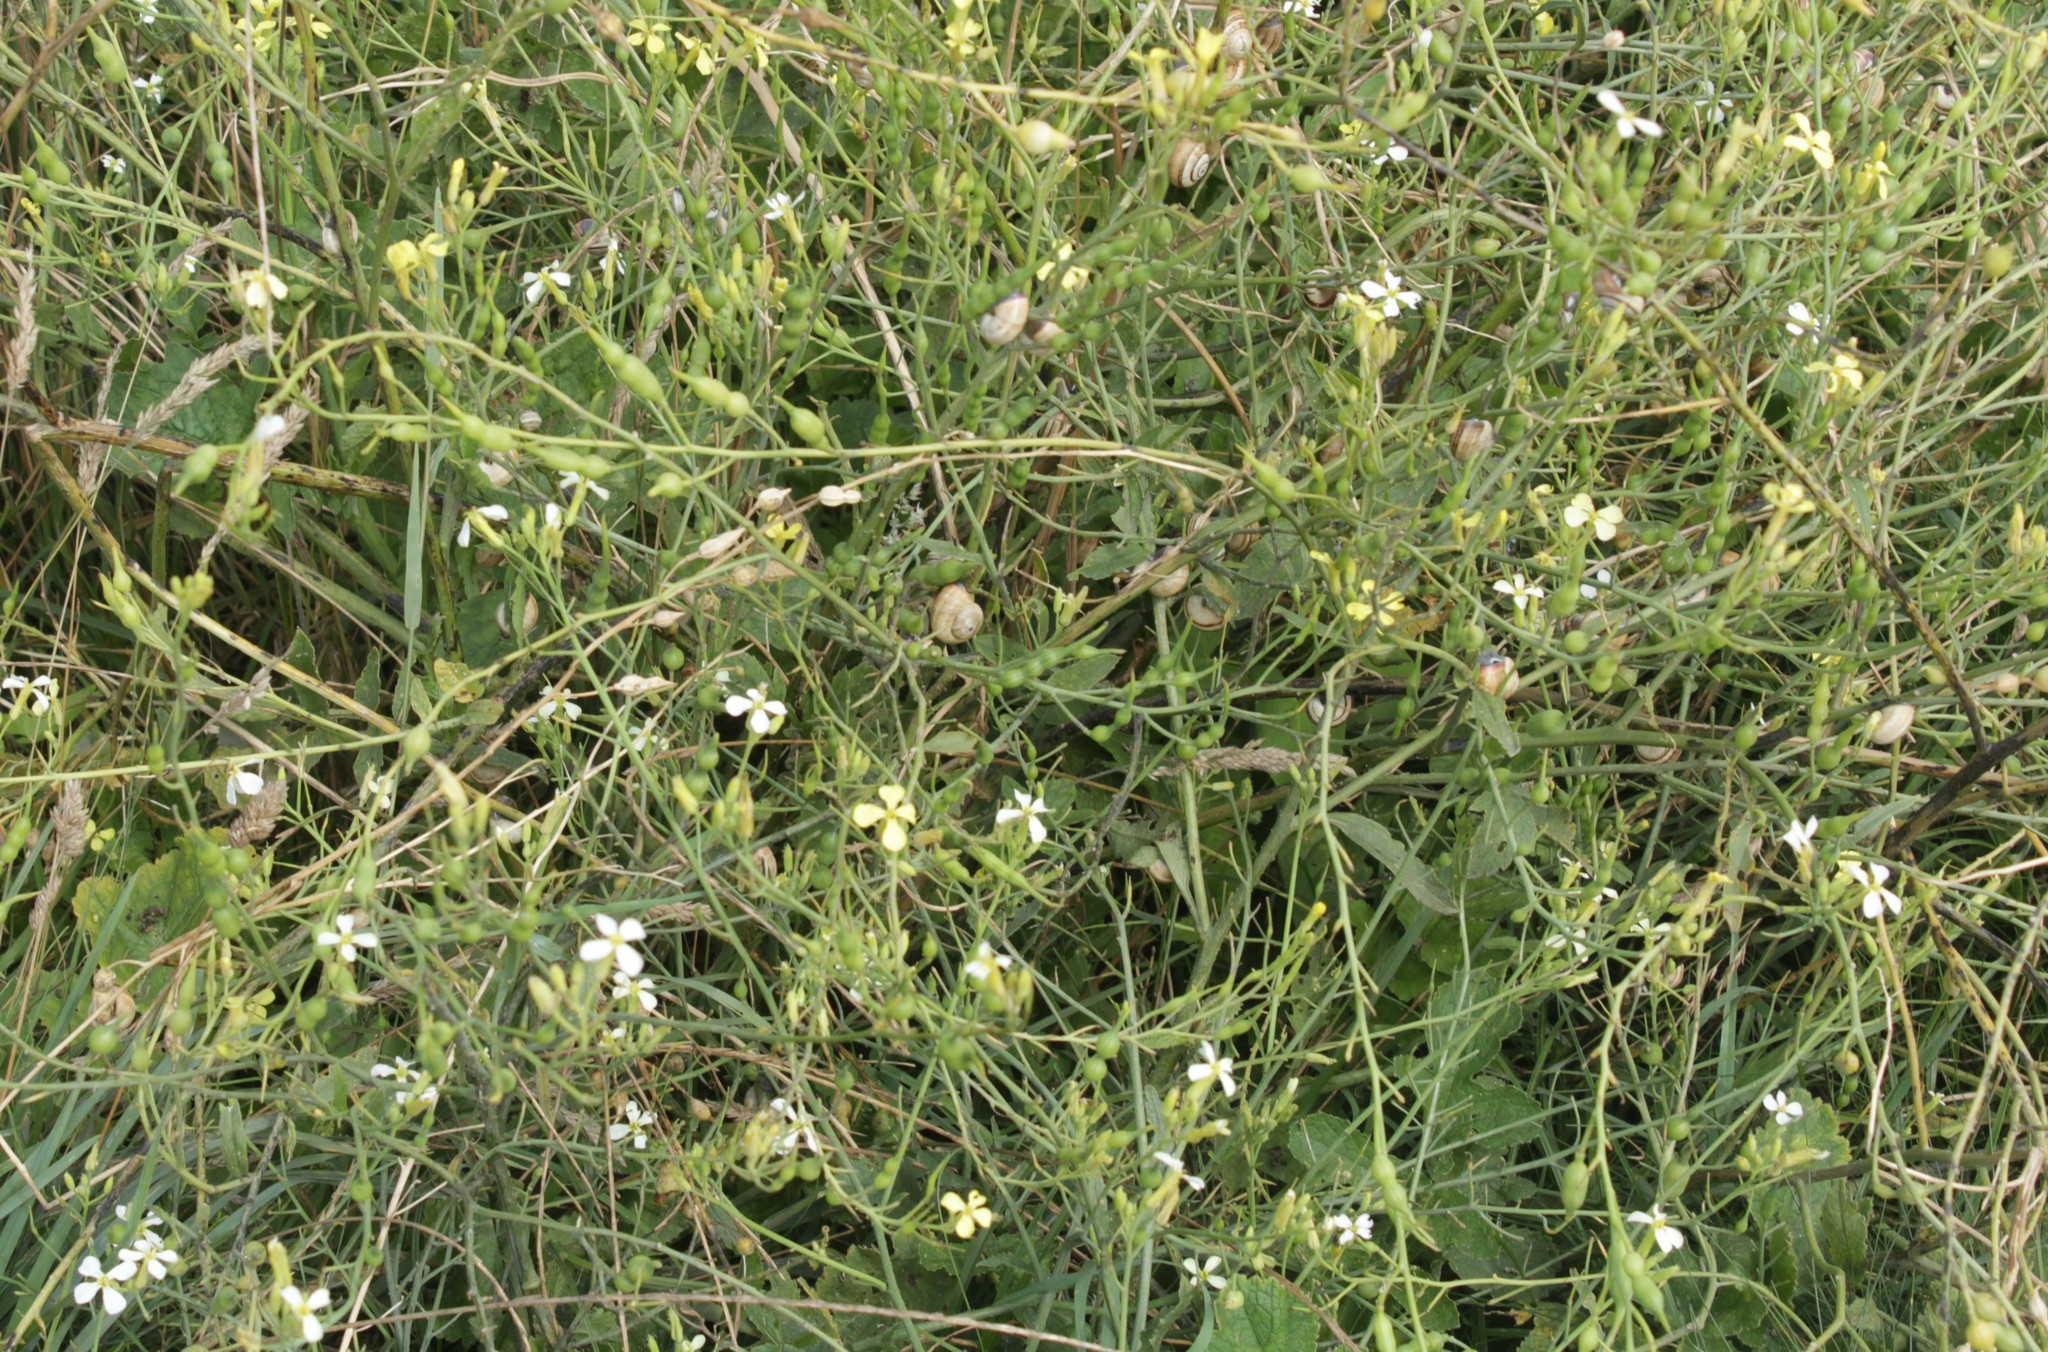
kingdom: Plantae
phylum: Tracheophyta
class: Magnoliopsida
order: Brassicales
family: Brassicaceae
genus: Raphanus
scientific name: Raphanus raphanistrum
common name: Wild radish
